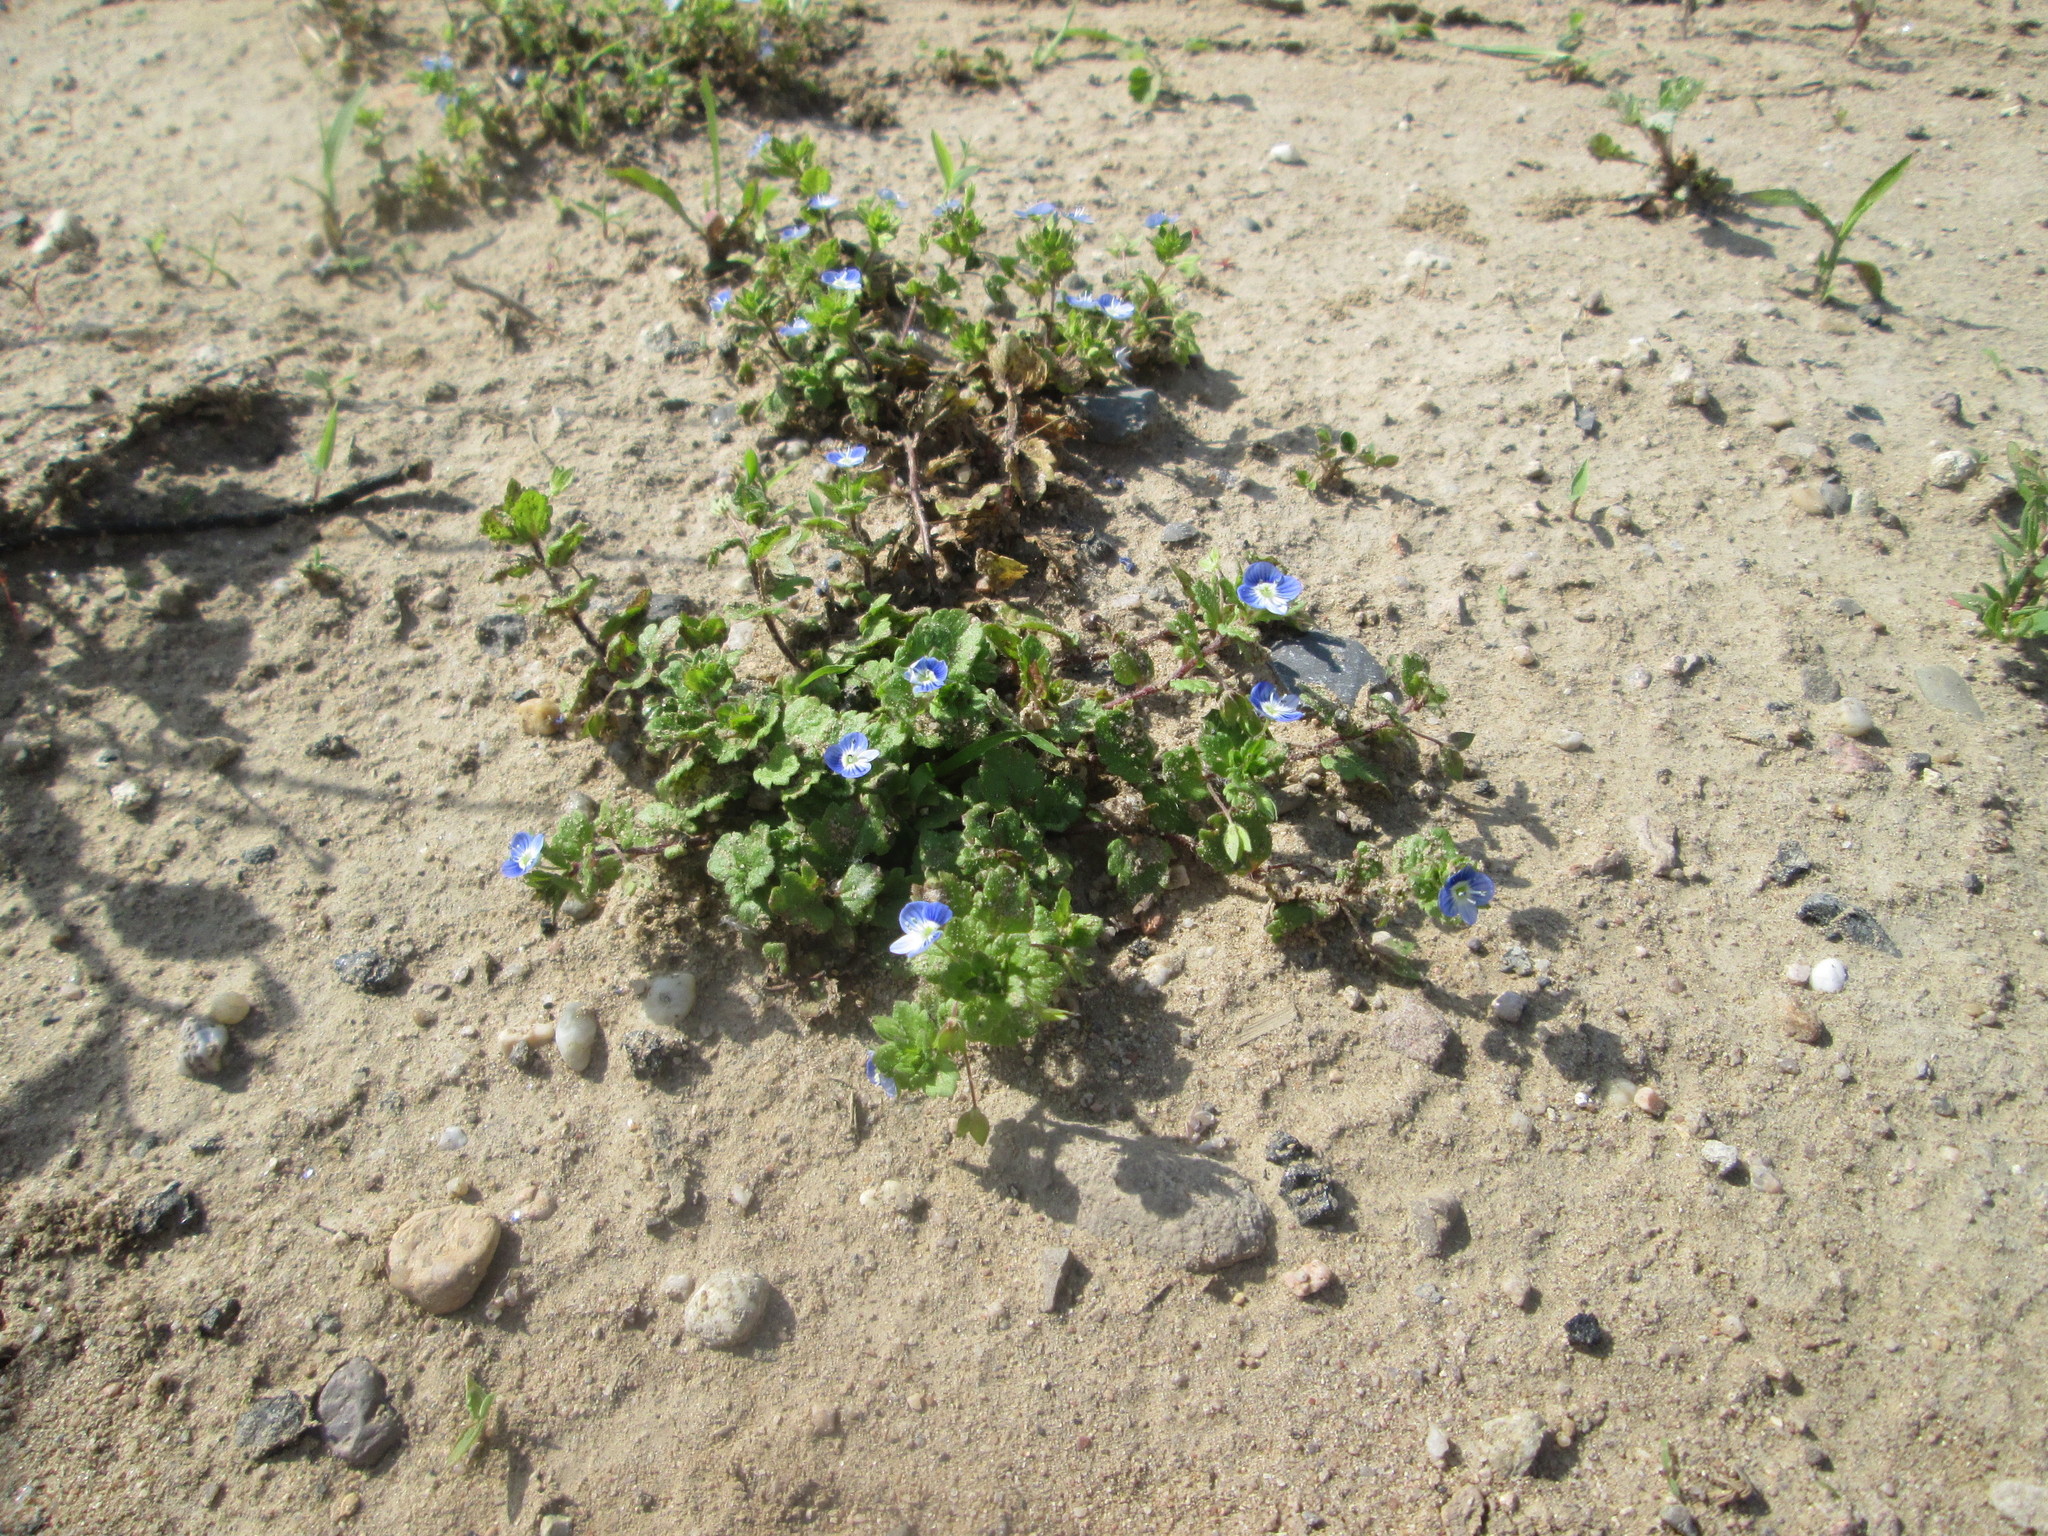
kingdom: Plantae
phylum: Tracheophyta
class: Magnoliopsida
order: Lamiales
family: Plantaginaceae
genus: Veronica
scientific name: Veronica persica
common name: Common field-speedwell
